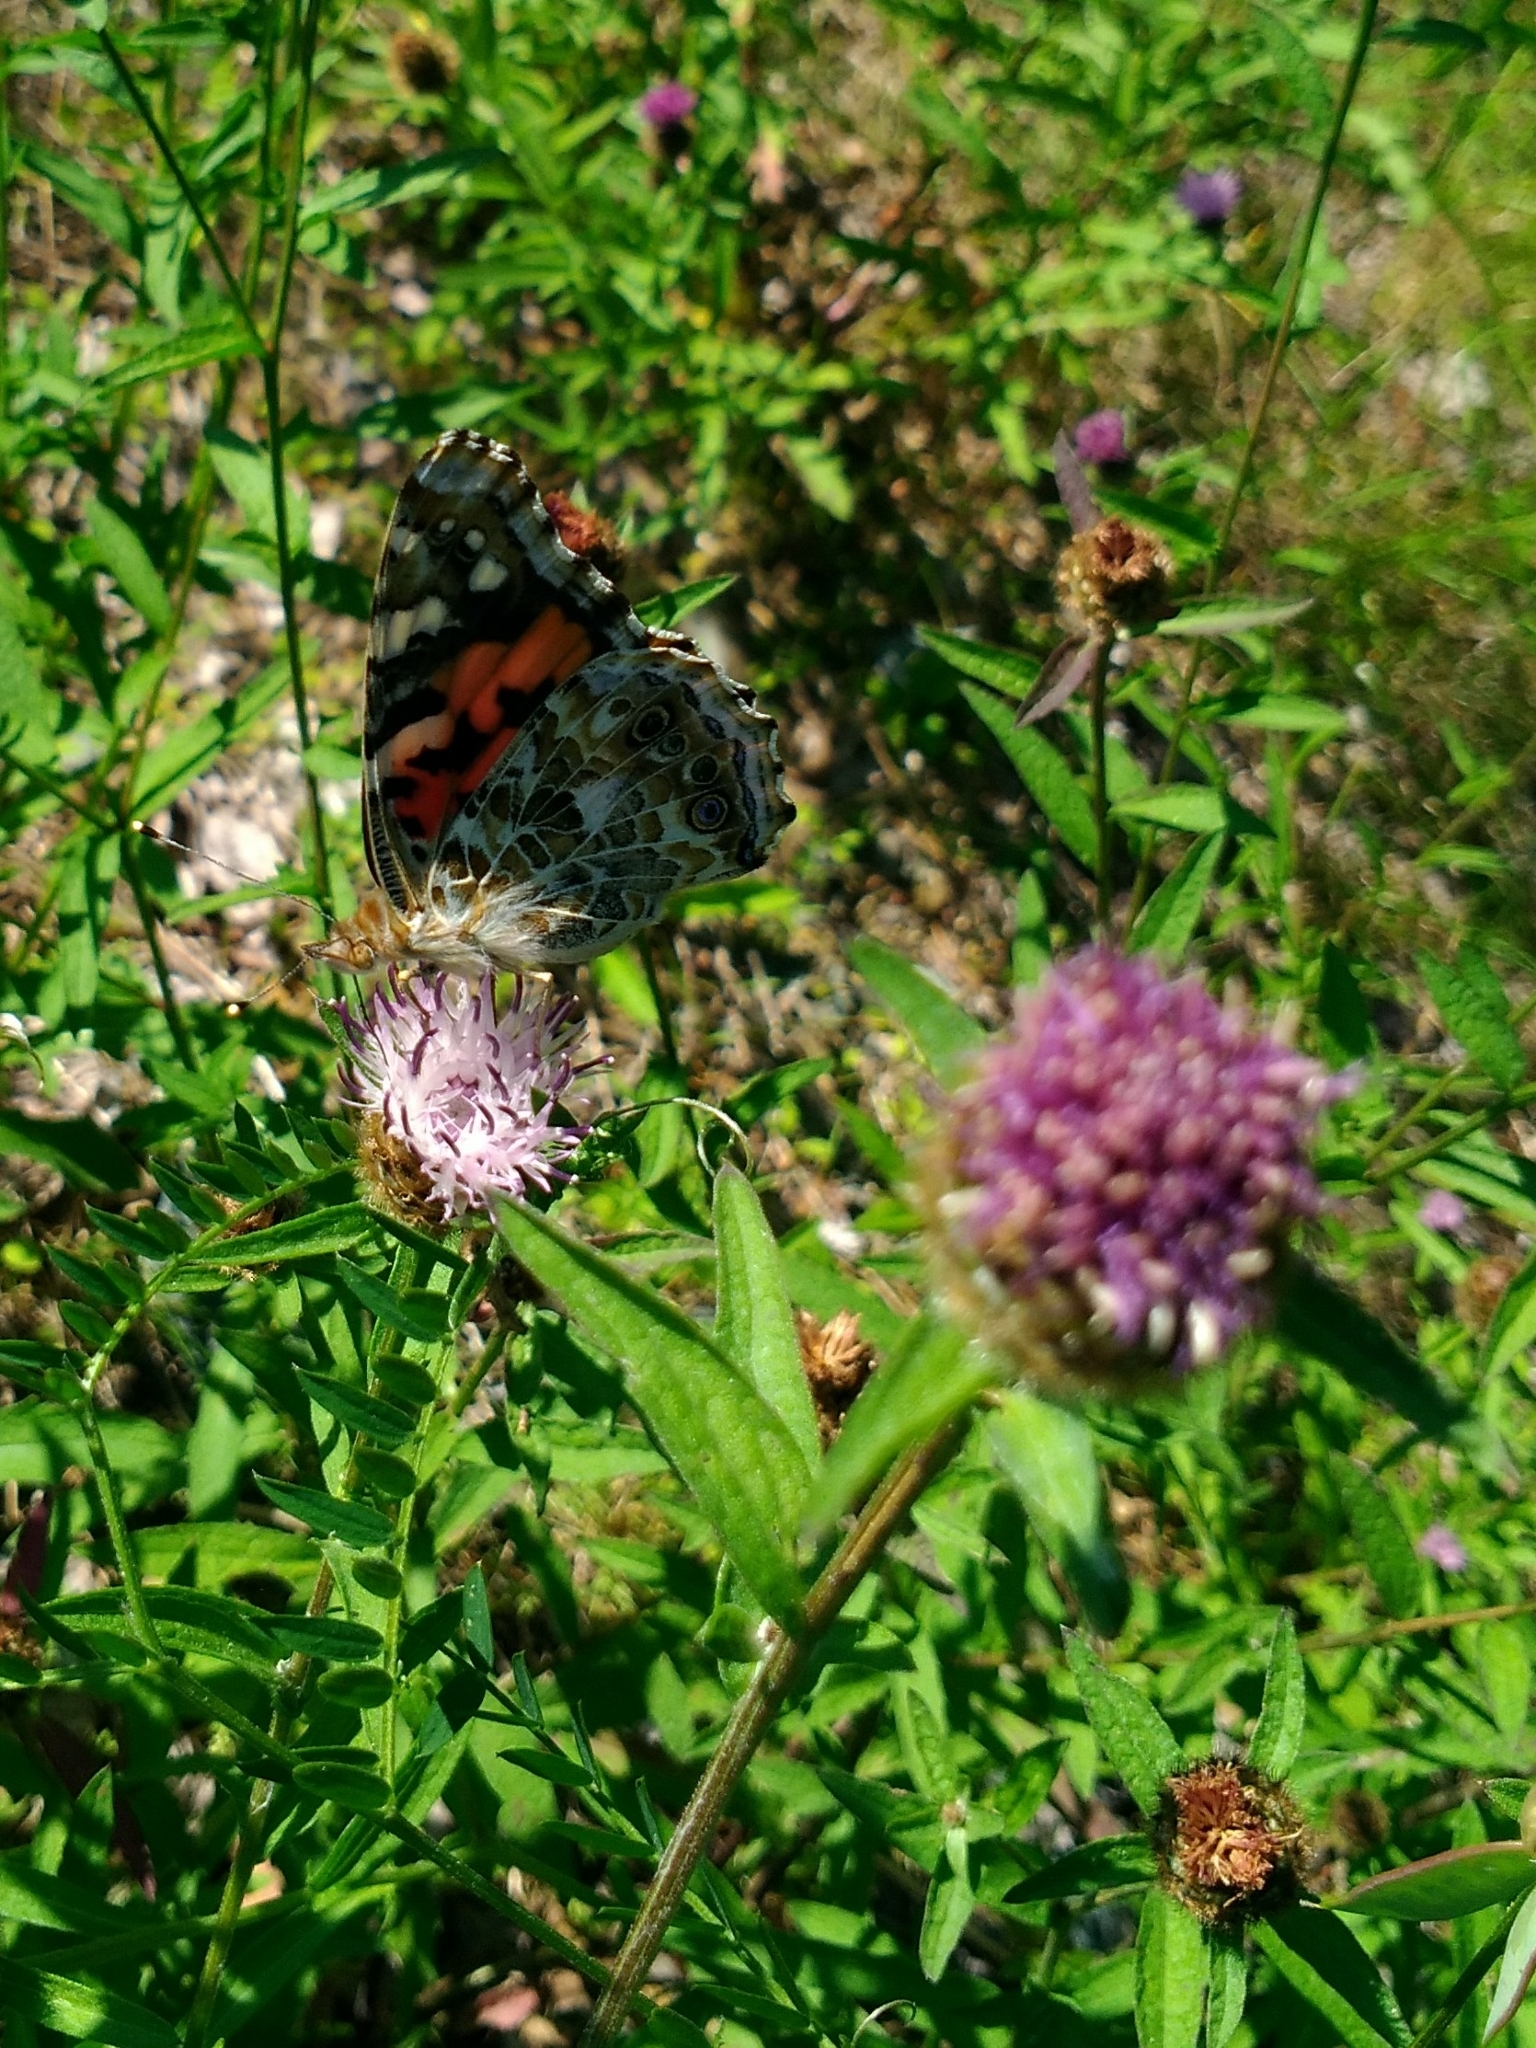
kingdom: Animalia
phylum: Arthropoda
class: Insecta
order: Lepidoptera
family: Nymphalidae
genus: Vanessa
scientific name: Vanessa cardui
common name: Painted lady
